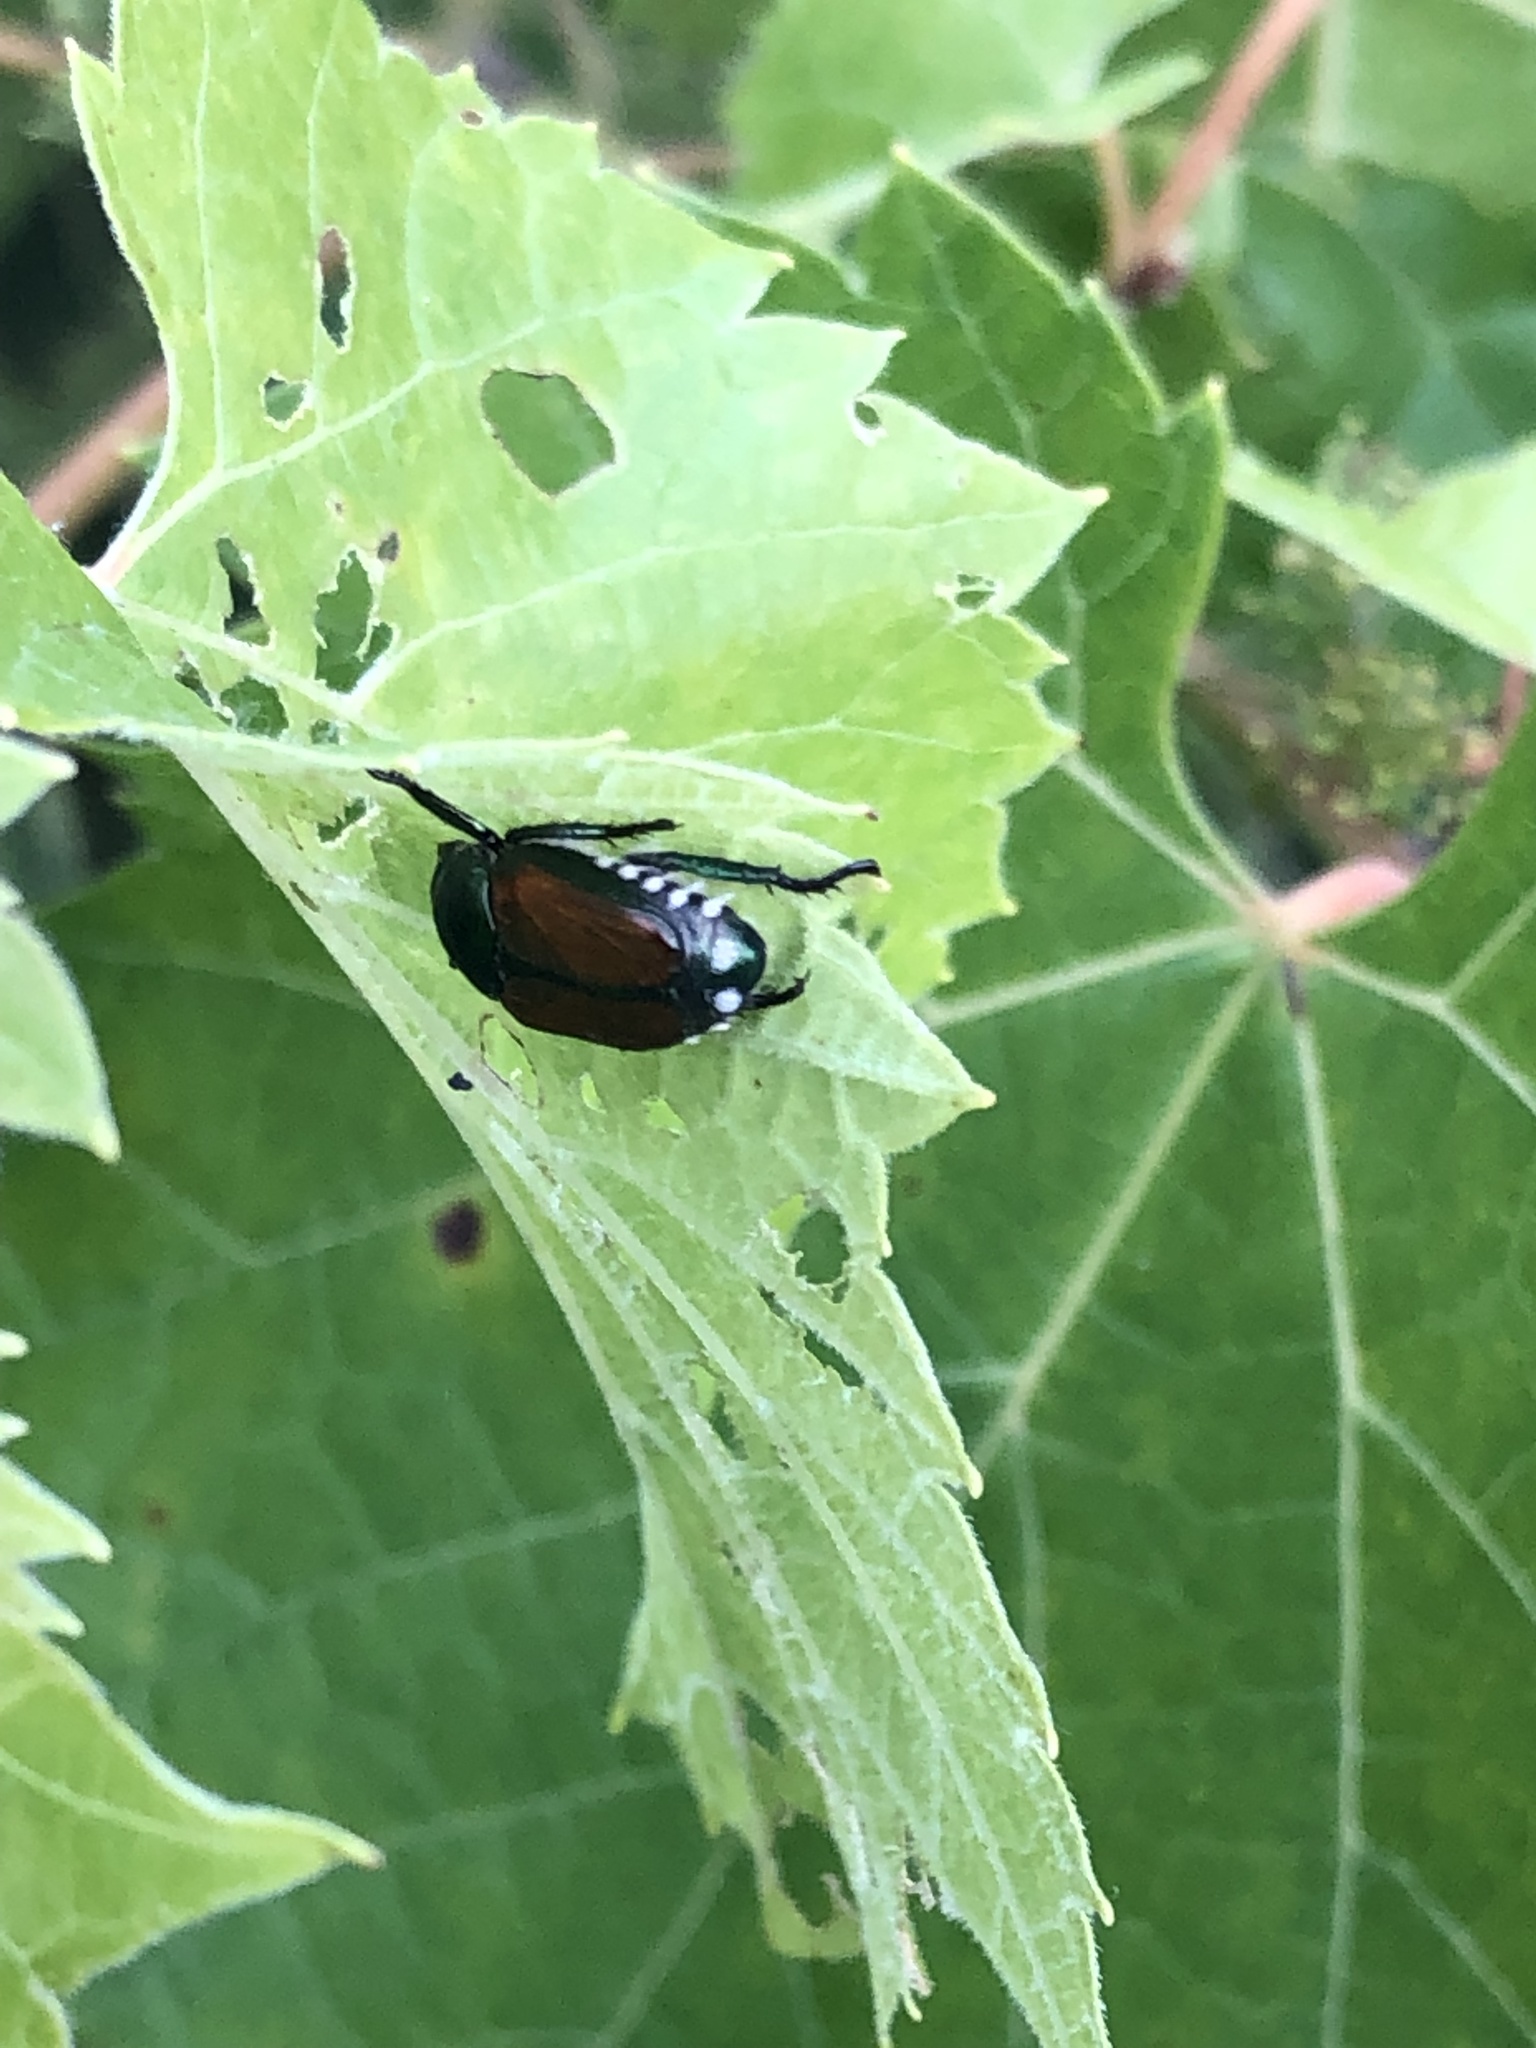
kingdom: Animalia
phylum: Arthropoda
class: Insecta
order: Coleoptera
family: Scarabaeidae
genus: Popillia
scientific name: Popillia japonica
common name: Japanese beetle
